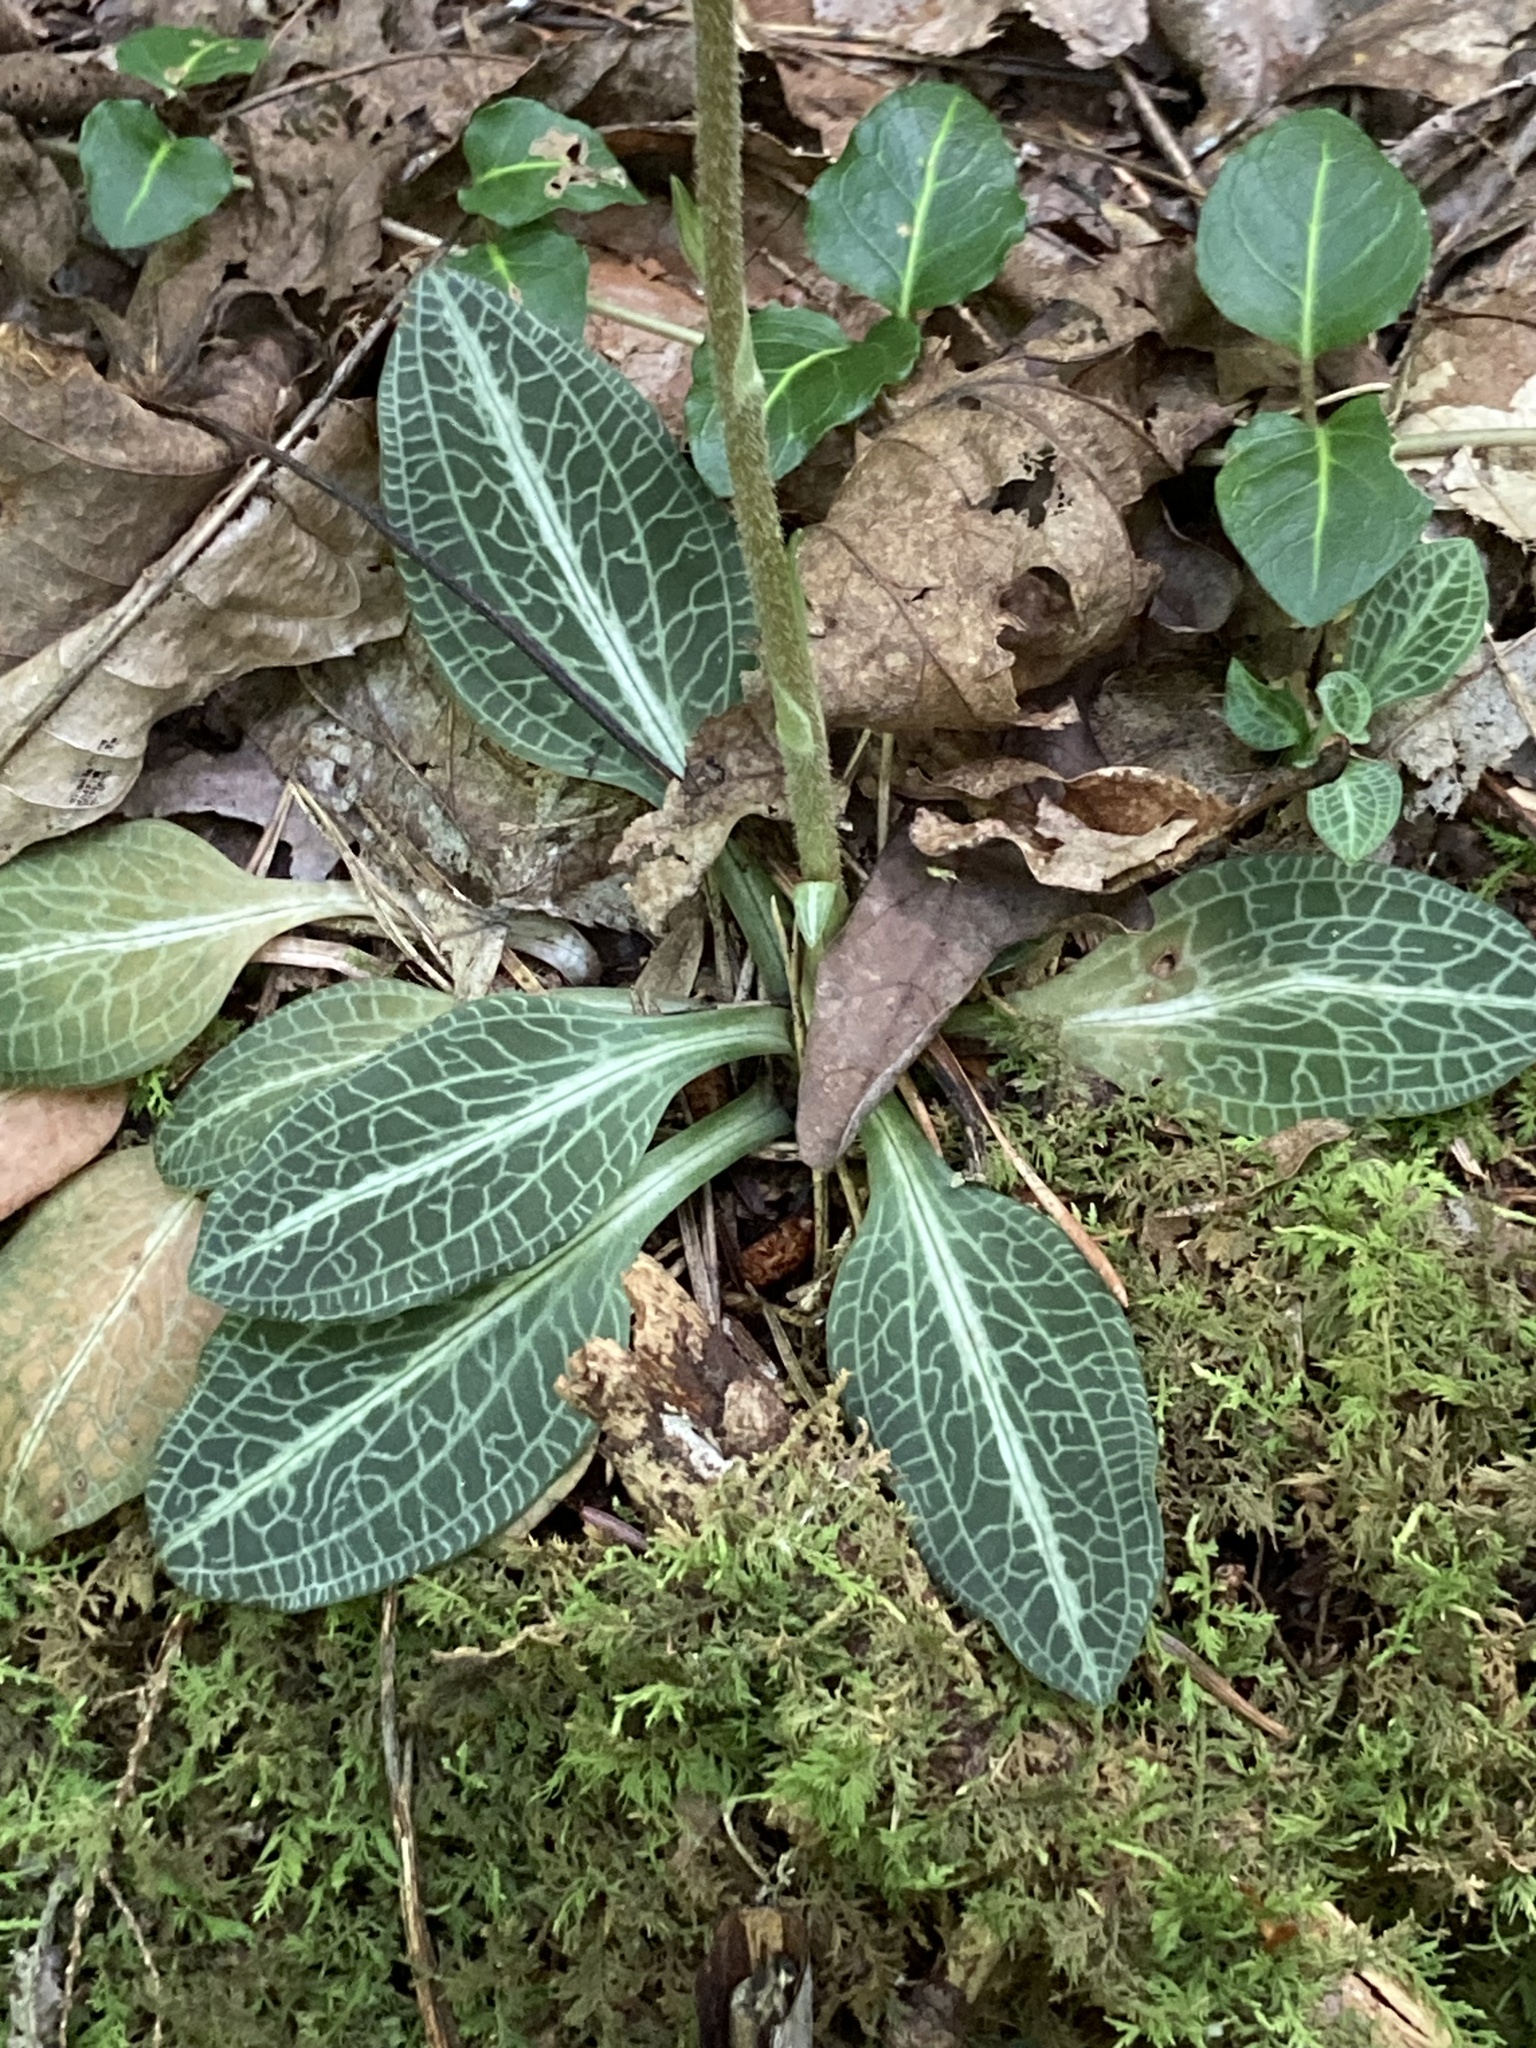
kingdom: Plantae
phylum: Tracheophyta
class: Liliopsida
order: Asparagales
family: Orchidaceae
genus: Goodyera
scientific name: Goodyera pubescens
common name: Downy rattlesnake-plantain
